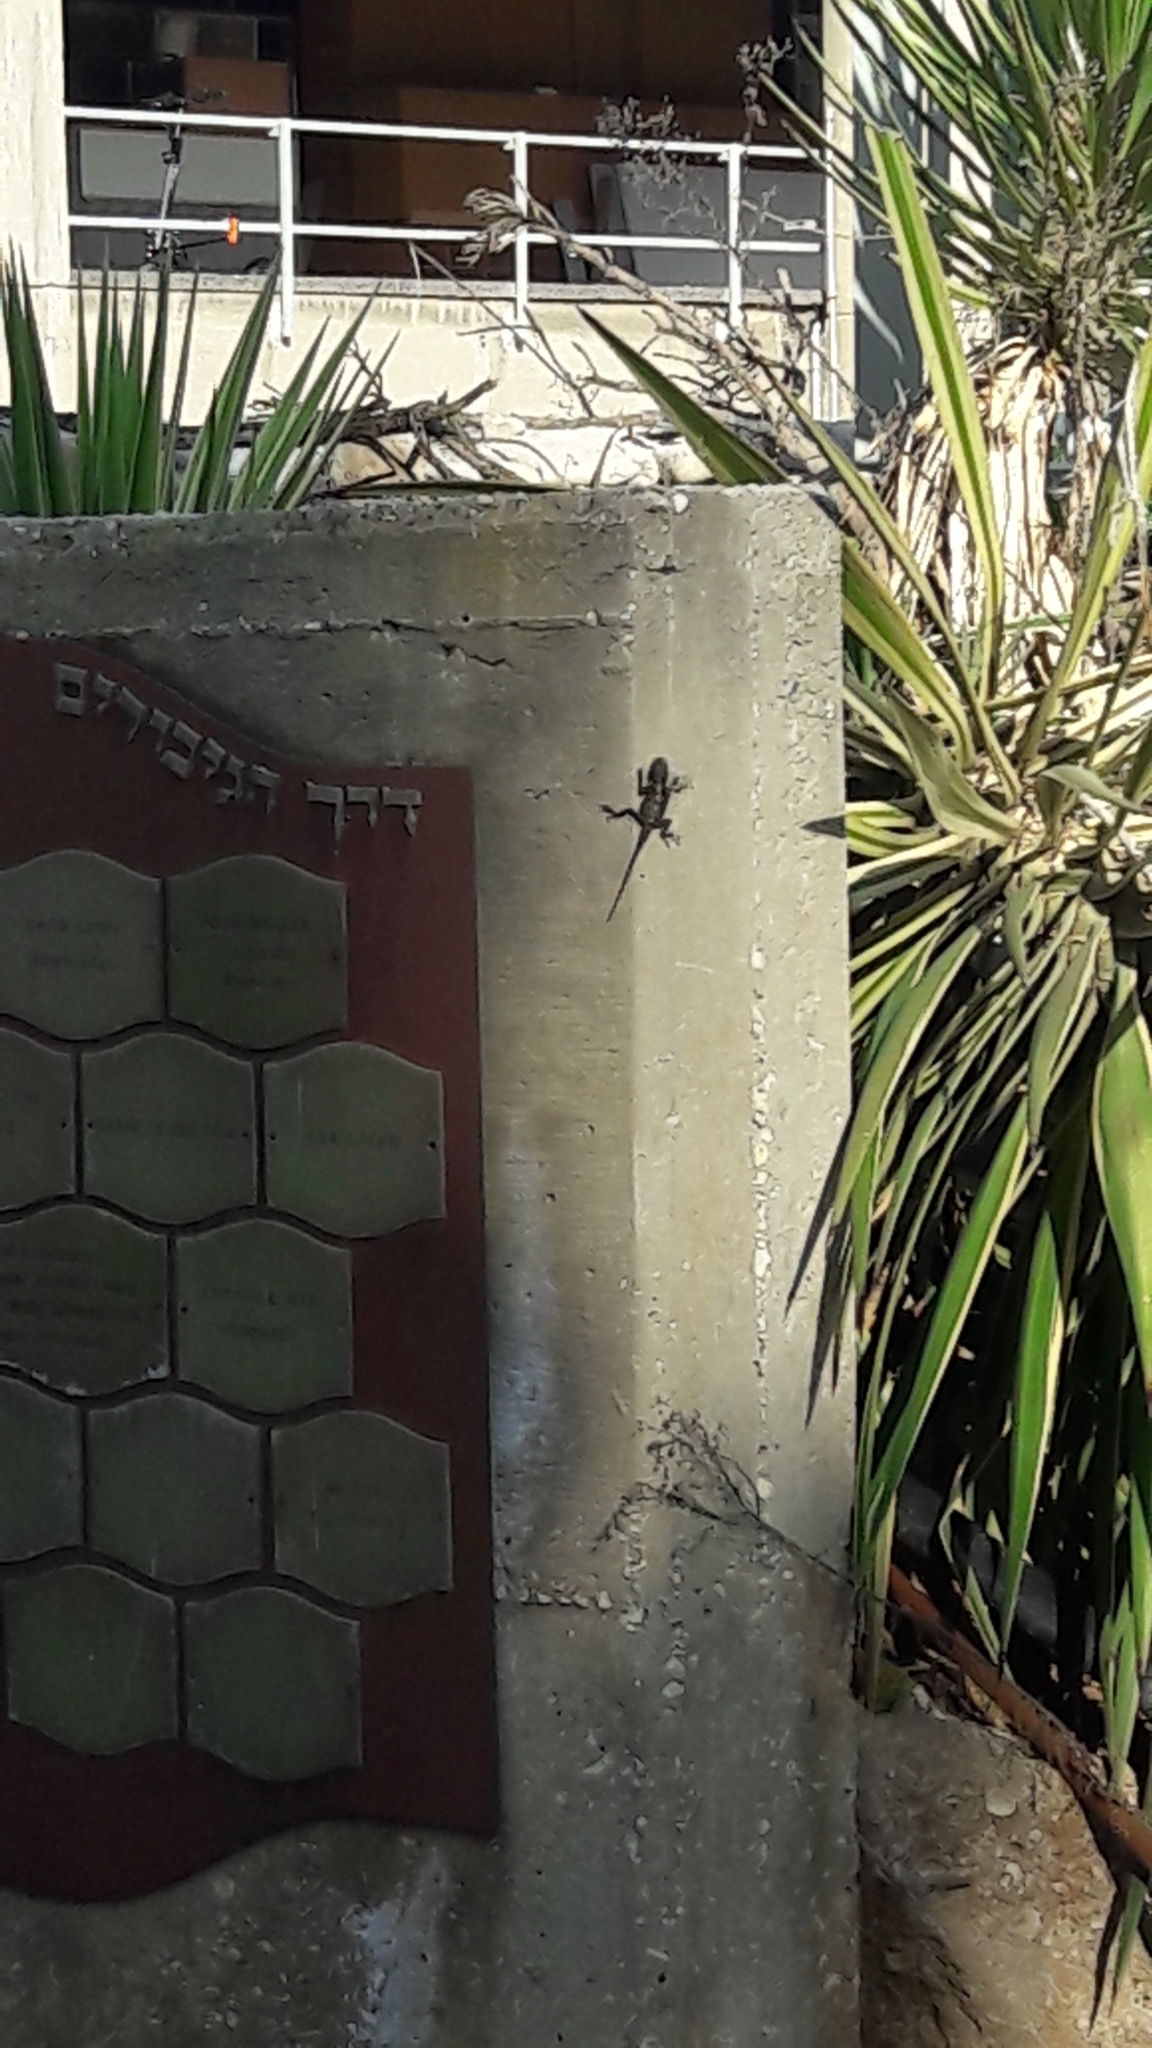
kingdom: Animalia
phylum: Chordata
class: Squamata
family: Agamidae
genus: Laudakia
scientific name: Laudakia vulgaris
